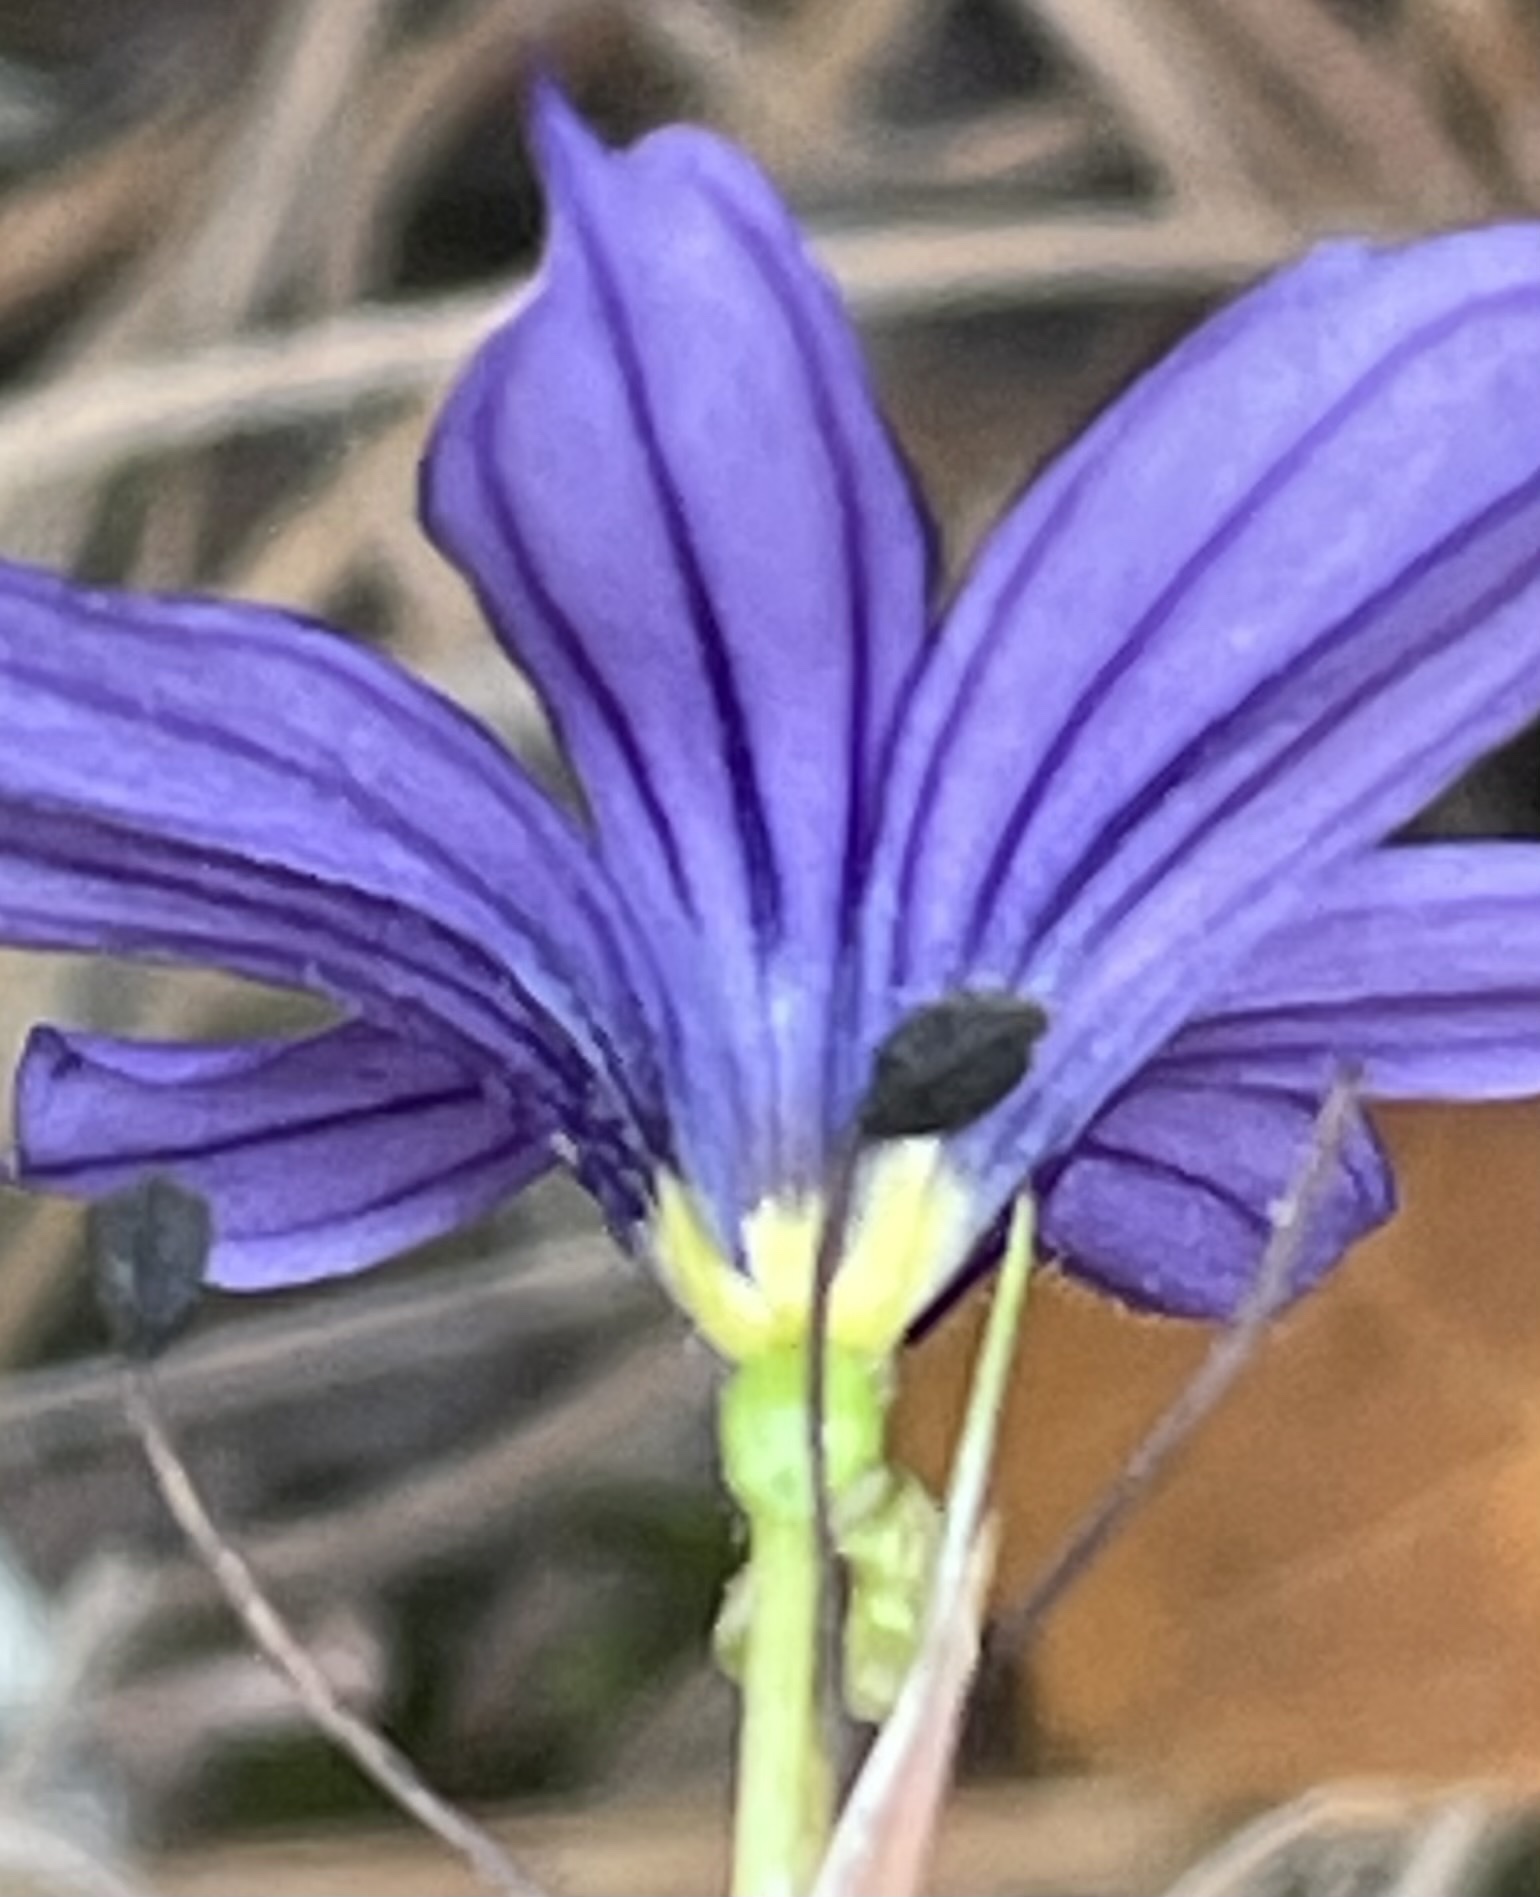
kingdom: Plantae
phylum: Tracheophyta
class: Liliopsida
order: Asparagales
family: Iridaceae
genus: Sisyrinchium
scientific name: Sisyrinchium bellum
